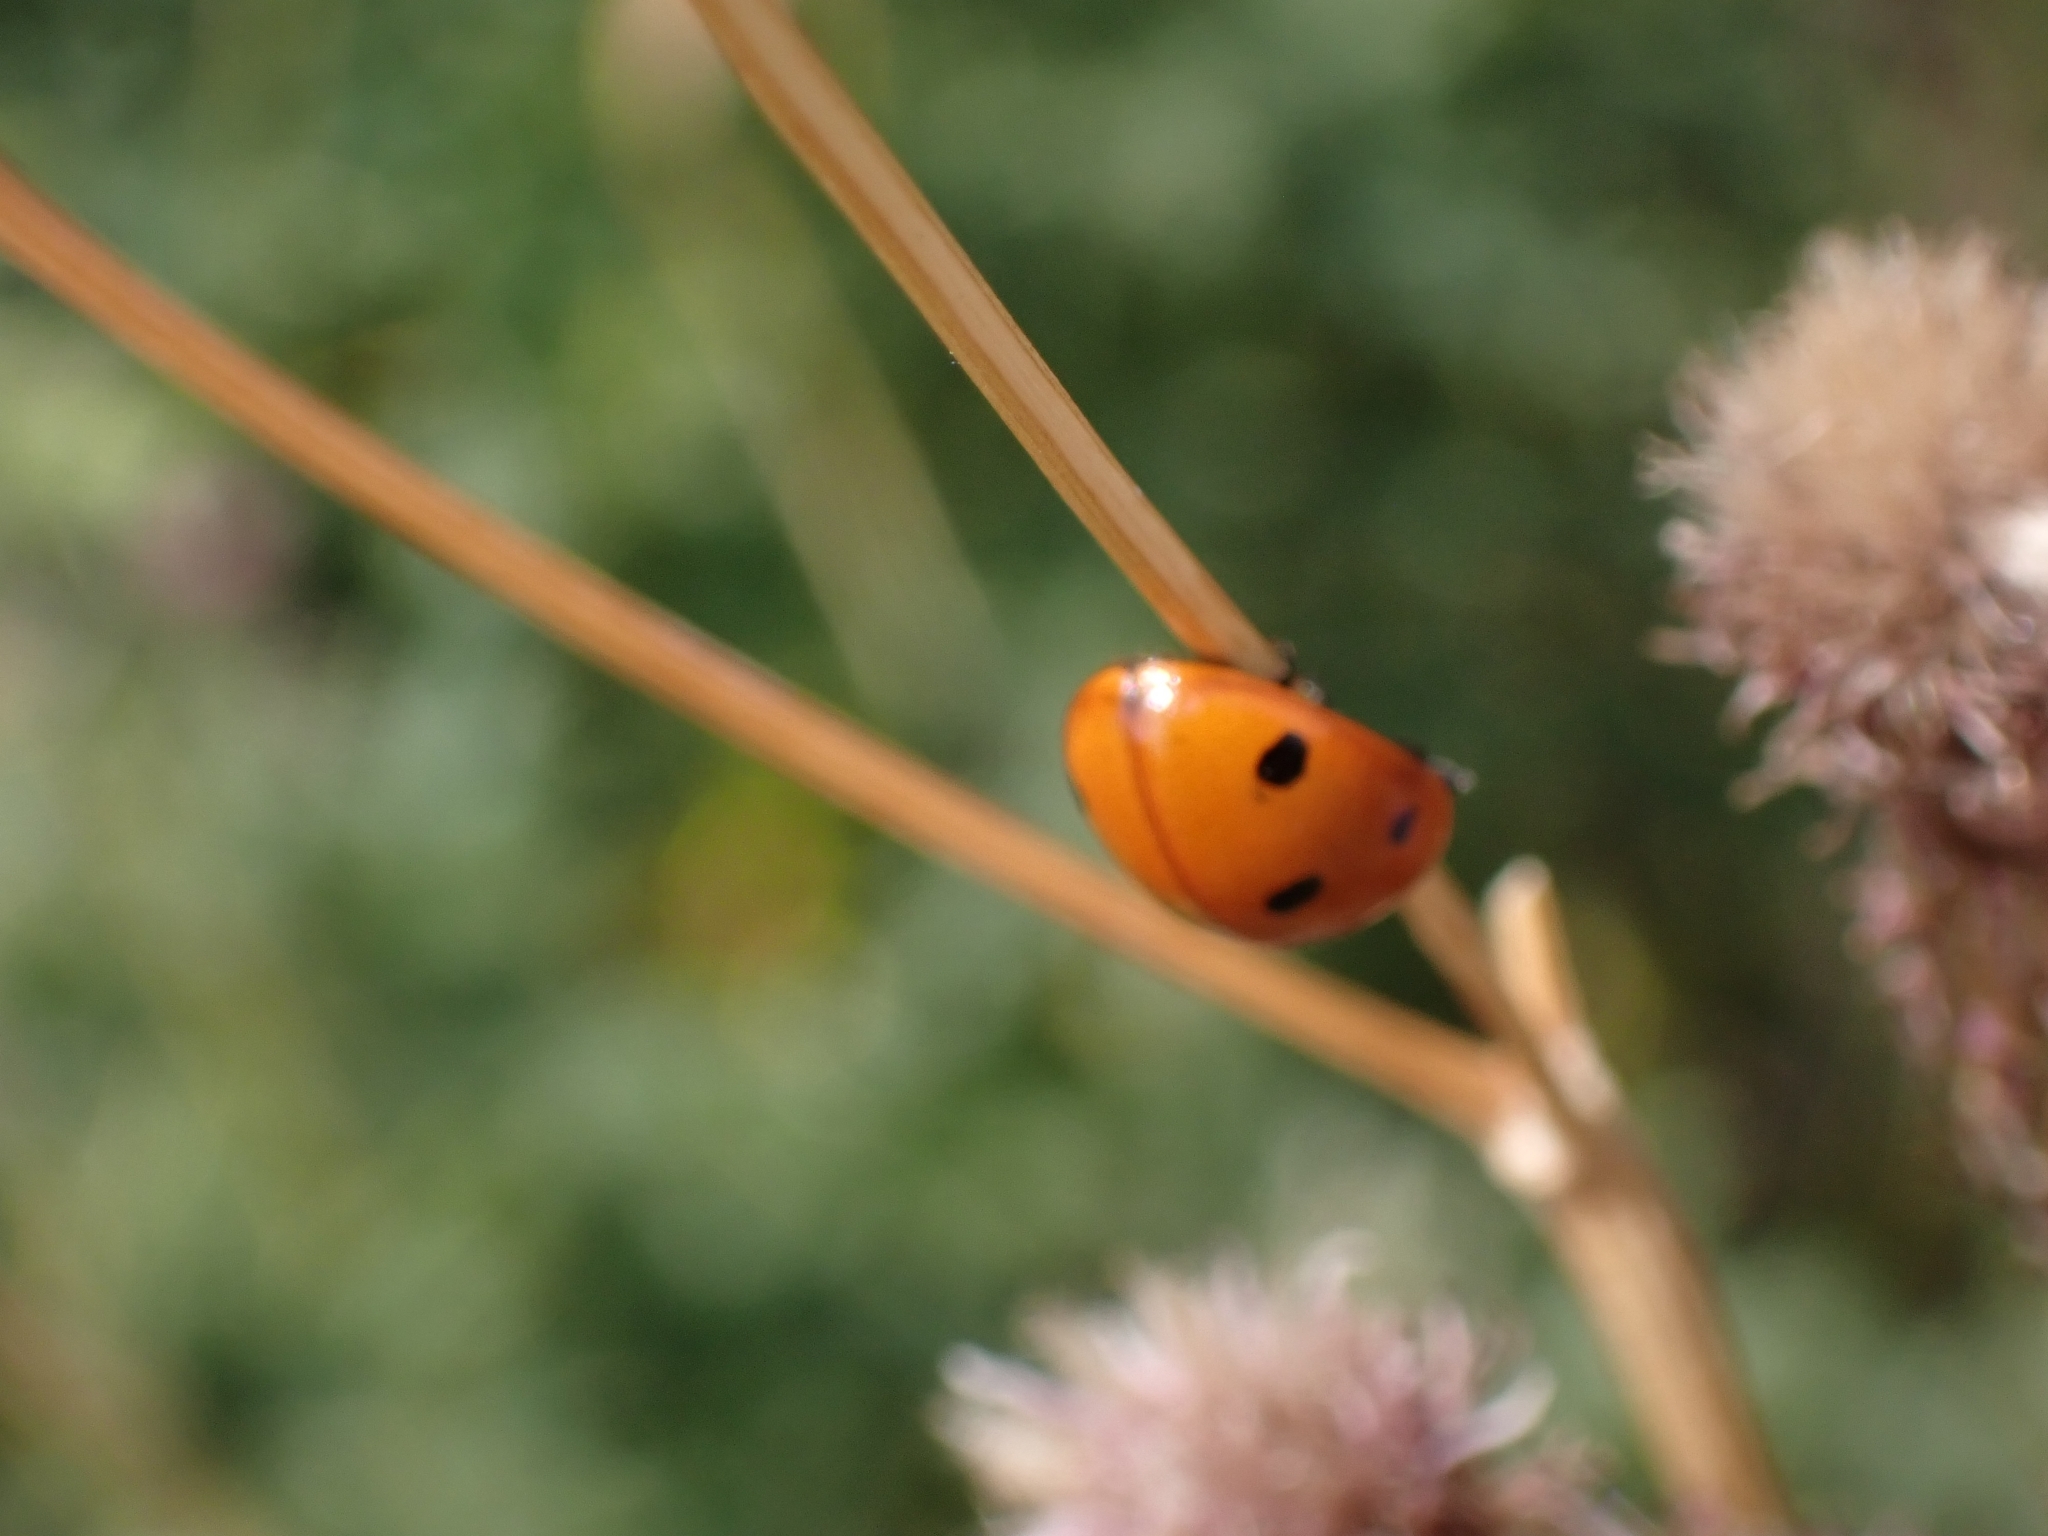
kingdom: Animalia
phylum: Arthropoda
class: Insecta
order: Coleoptera
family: Coccinellidae
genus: Coccinella
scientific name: Coccinella septempunctata
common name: Sevenspotted lady beetle
